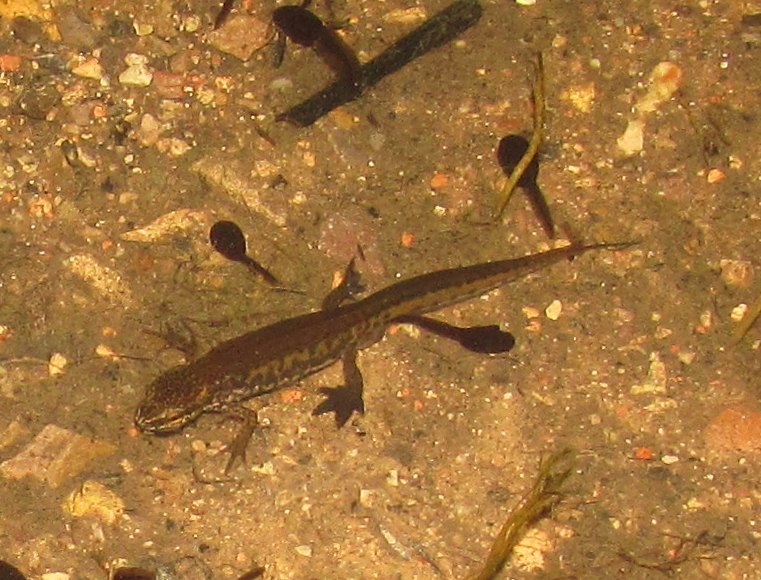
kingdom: Animalia
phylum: Chordata
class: Amphibia
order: Caudata
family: Salamandridae
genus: Lissotriton
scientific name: Lissotriton helveticus
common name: Palmate newt
